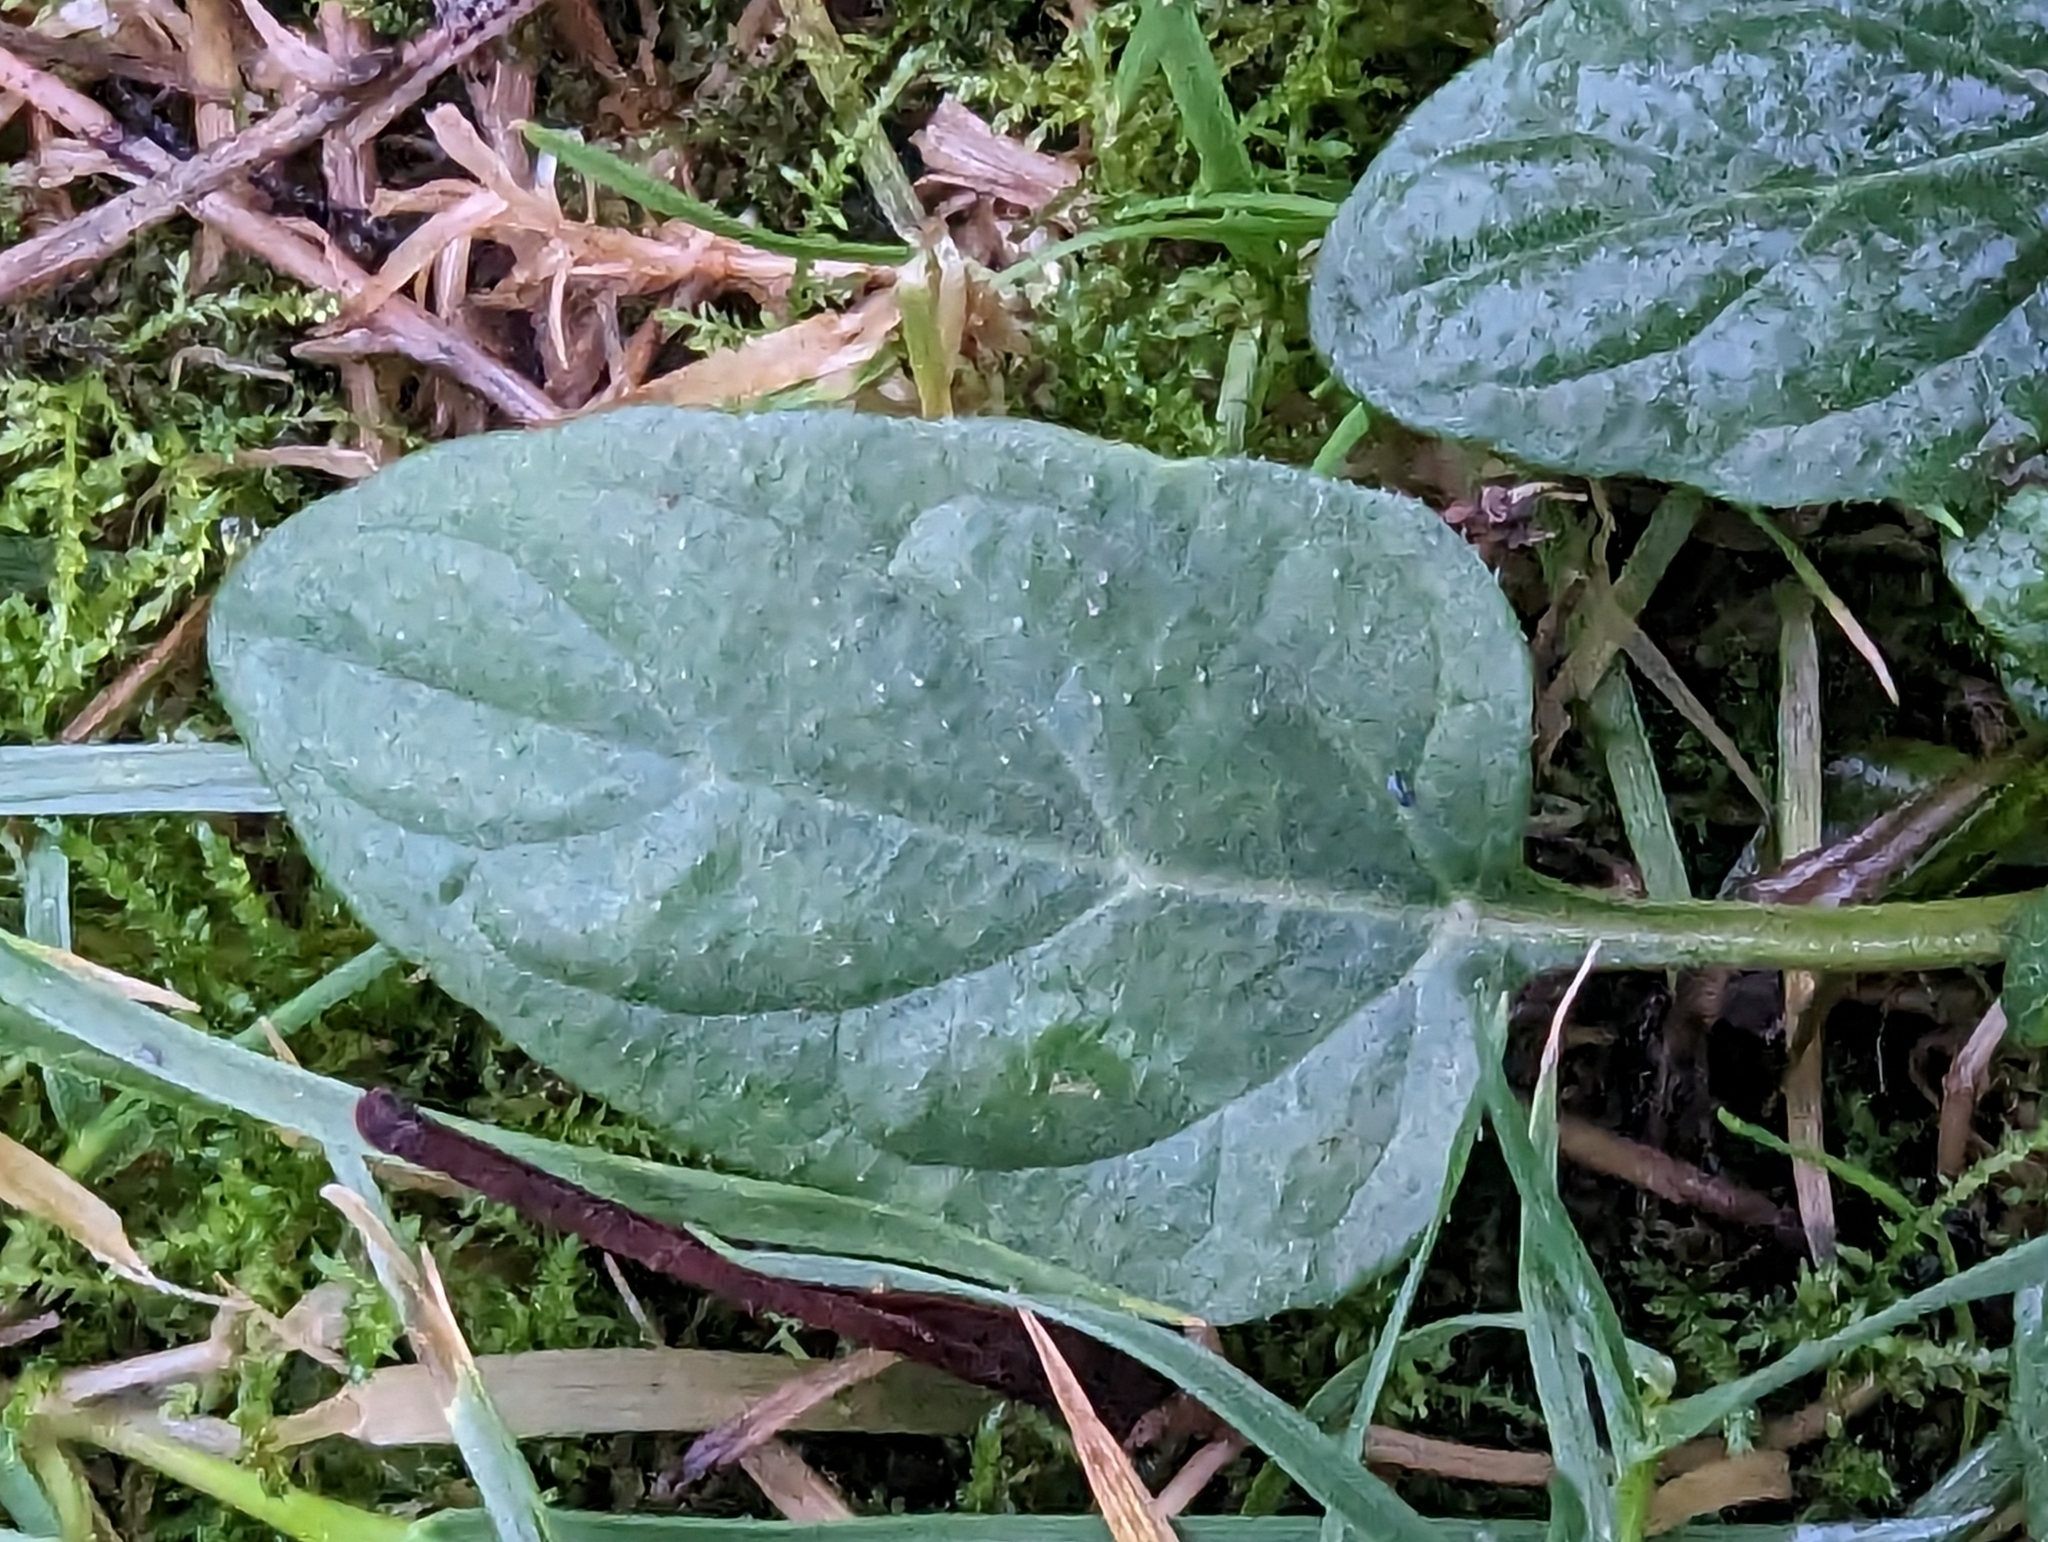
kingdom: Plantae
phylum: Tracheophyta
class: Magnoliopsida
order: Lamiales
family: Lamiaceae
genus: Prunella
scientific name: Prunella vulgaris
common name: Heal-all
